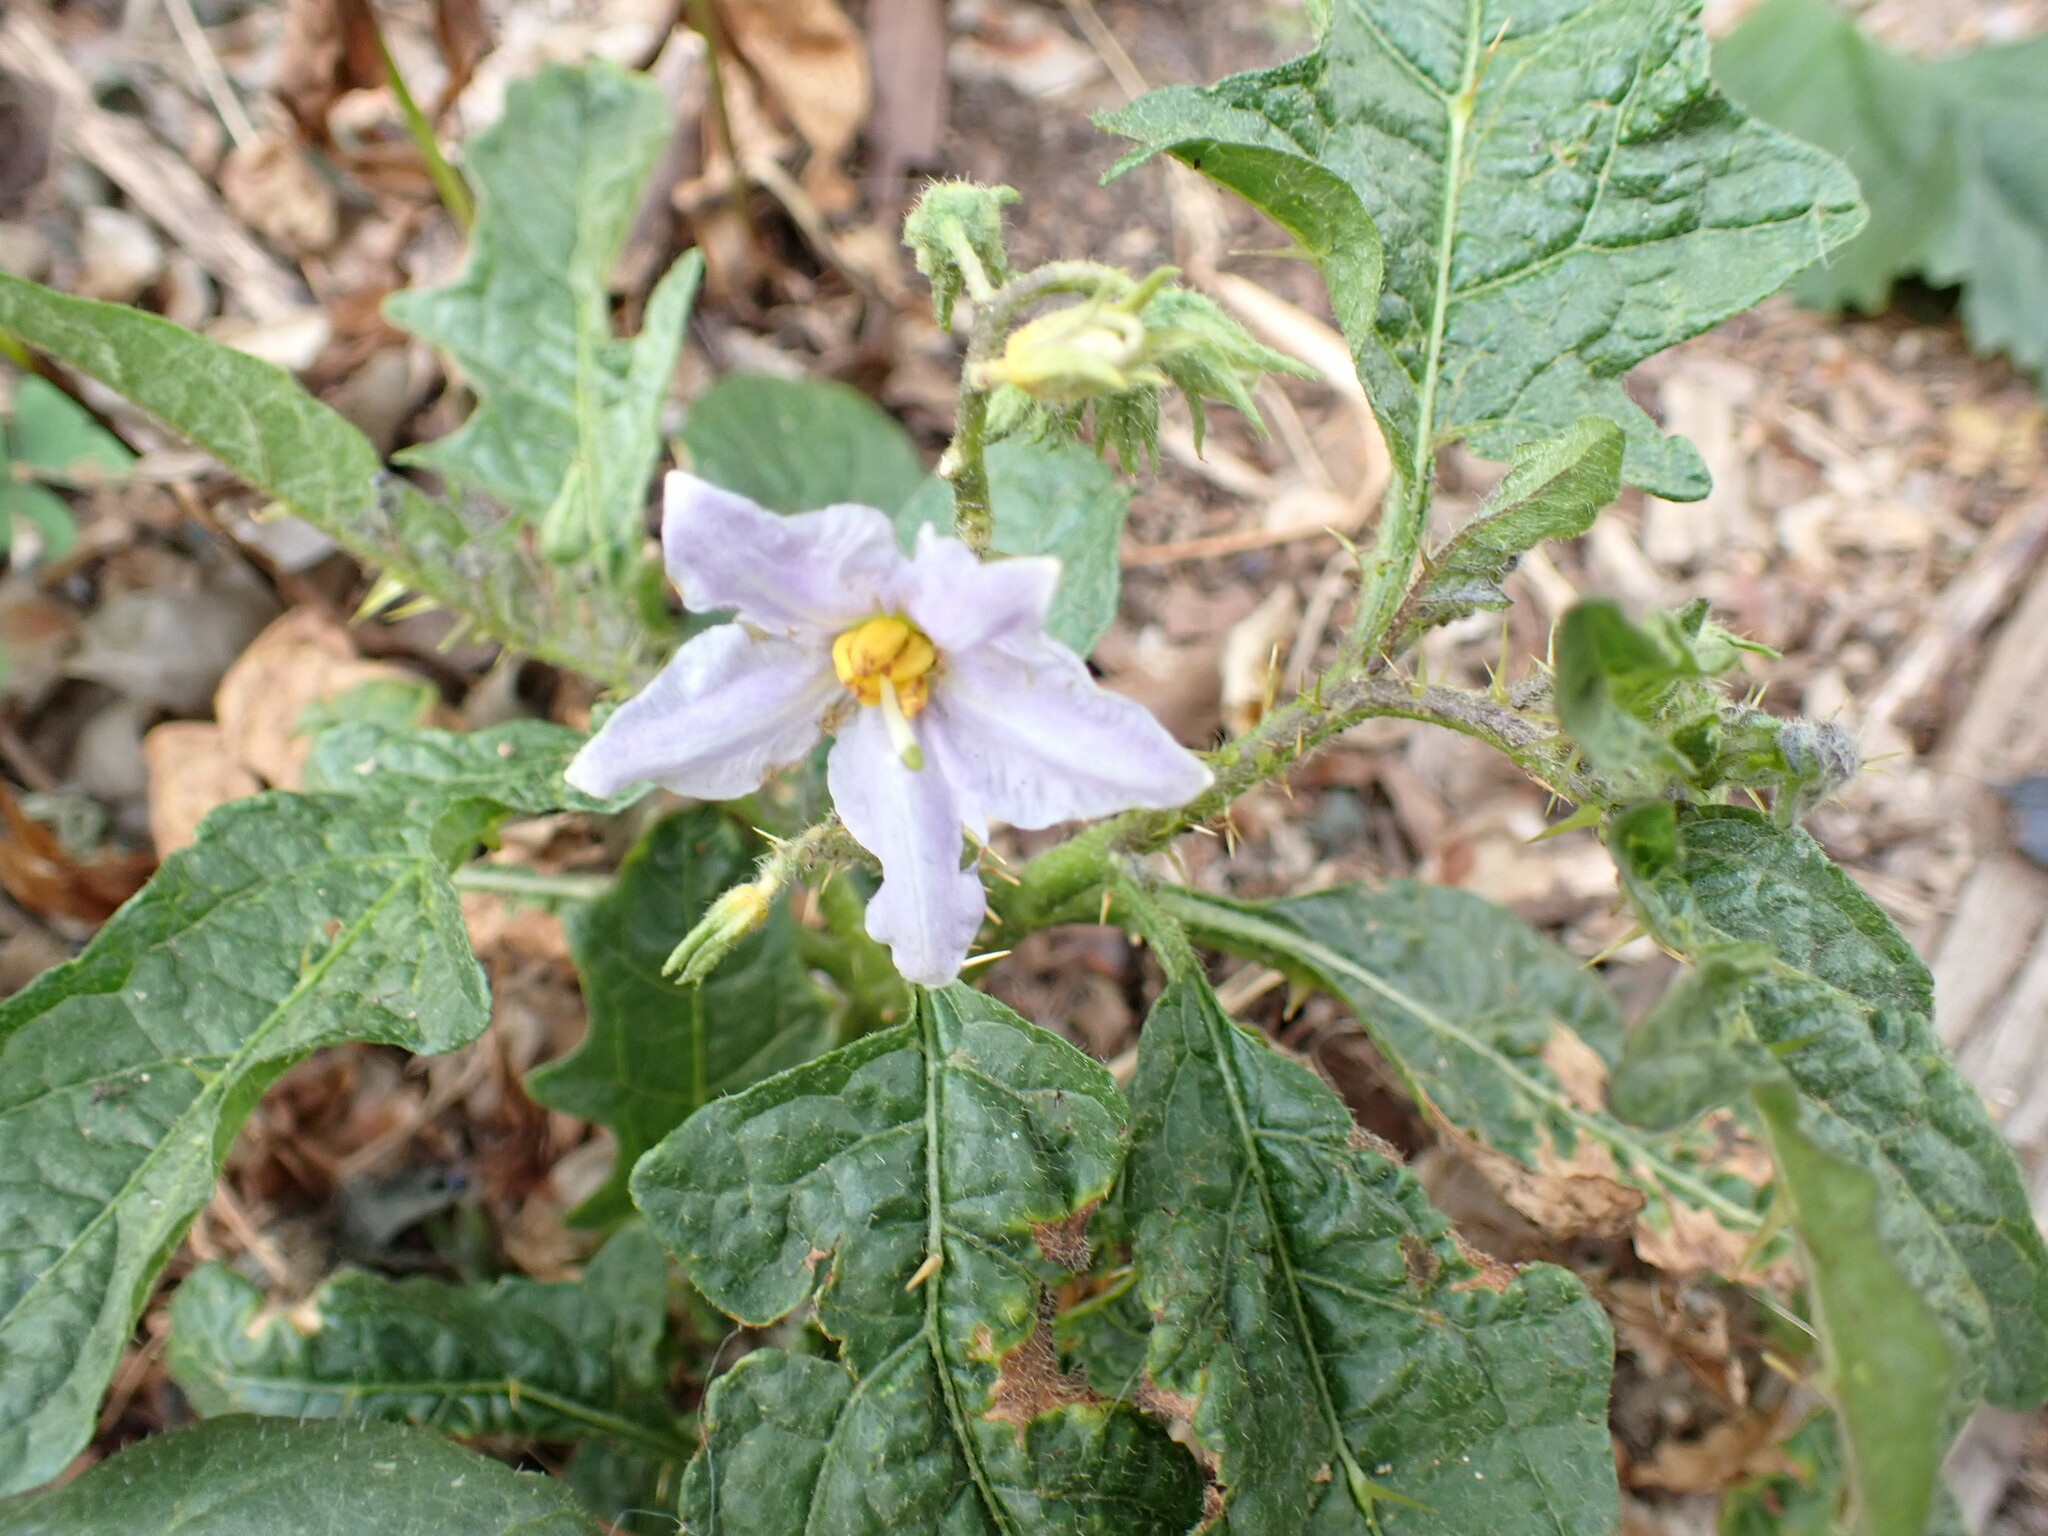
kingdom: Plantae
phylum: Tracheophyta
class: Magnoliopsida
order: Solanales
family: Solanaceae
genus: Solanum
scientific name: Solanum carolinense
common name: Horse-nettle
